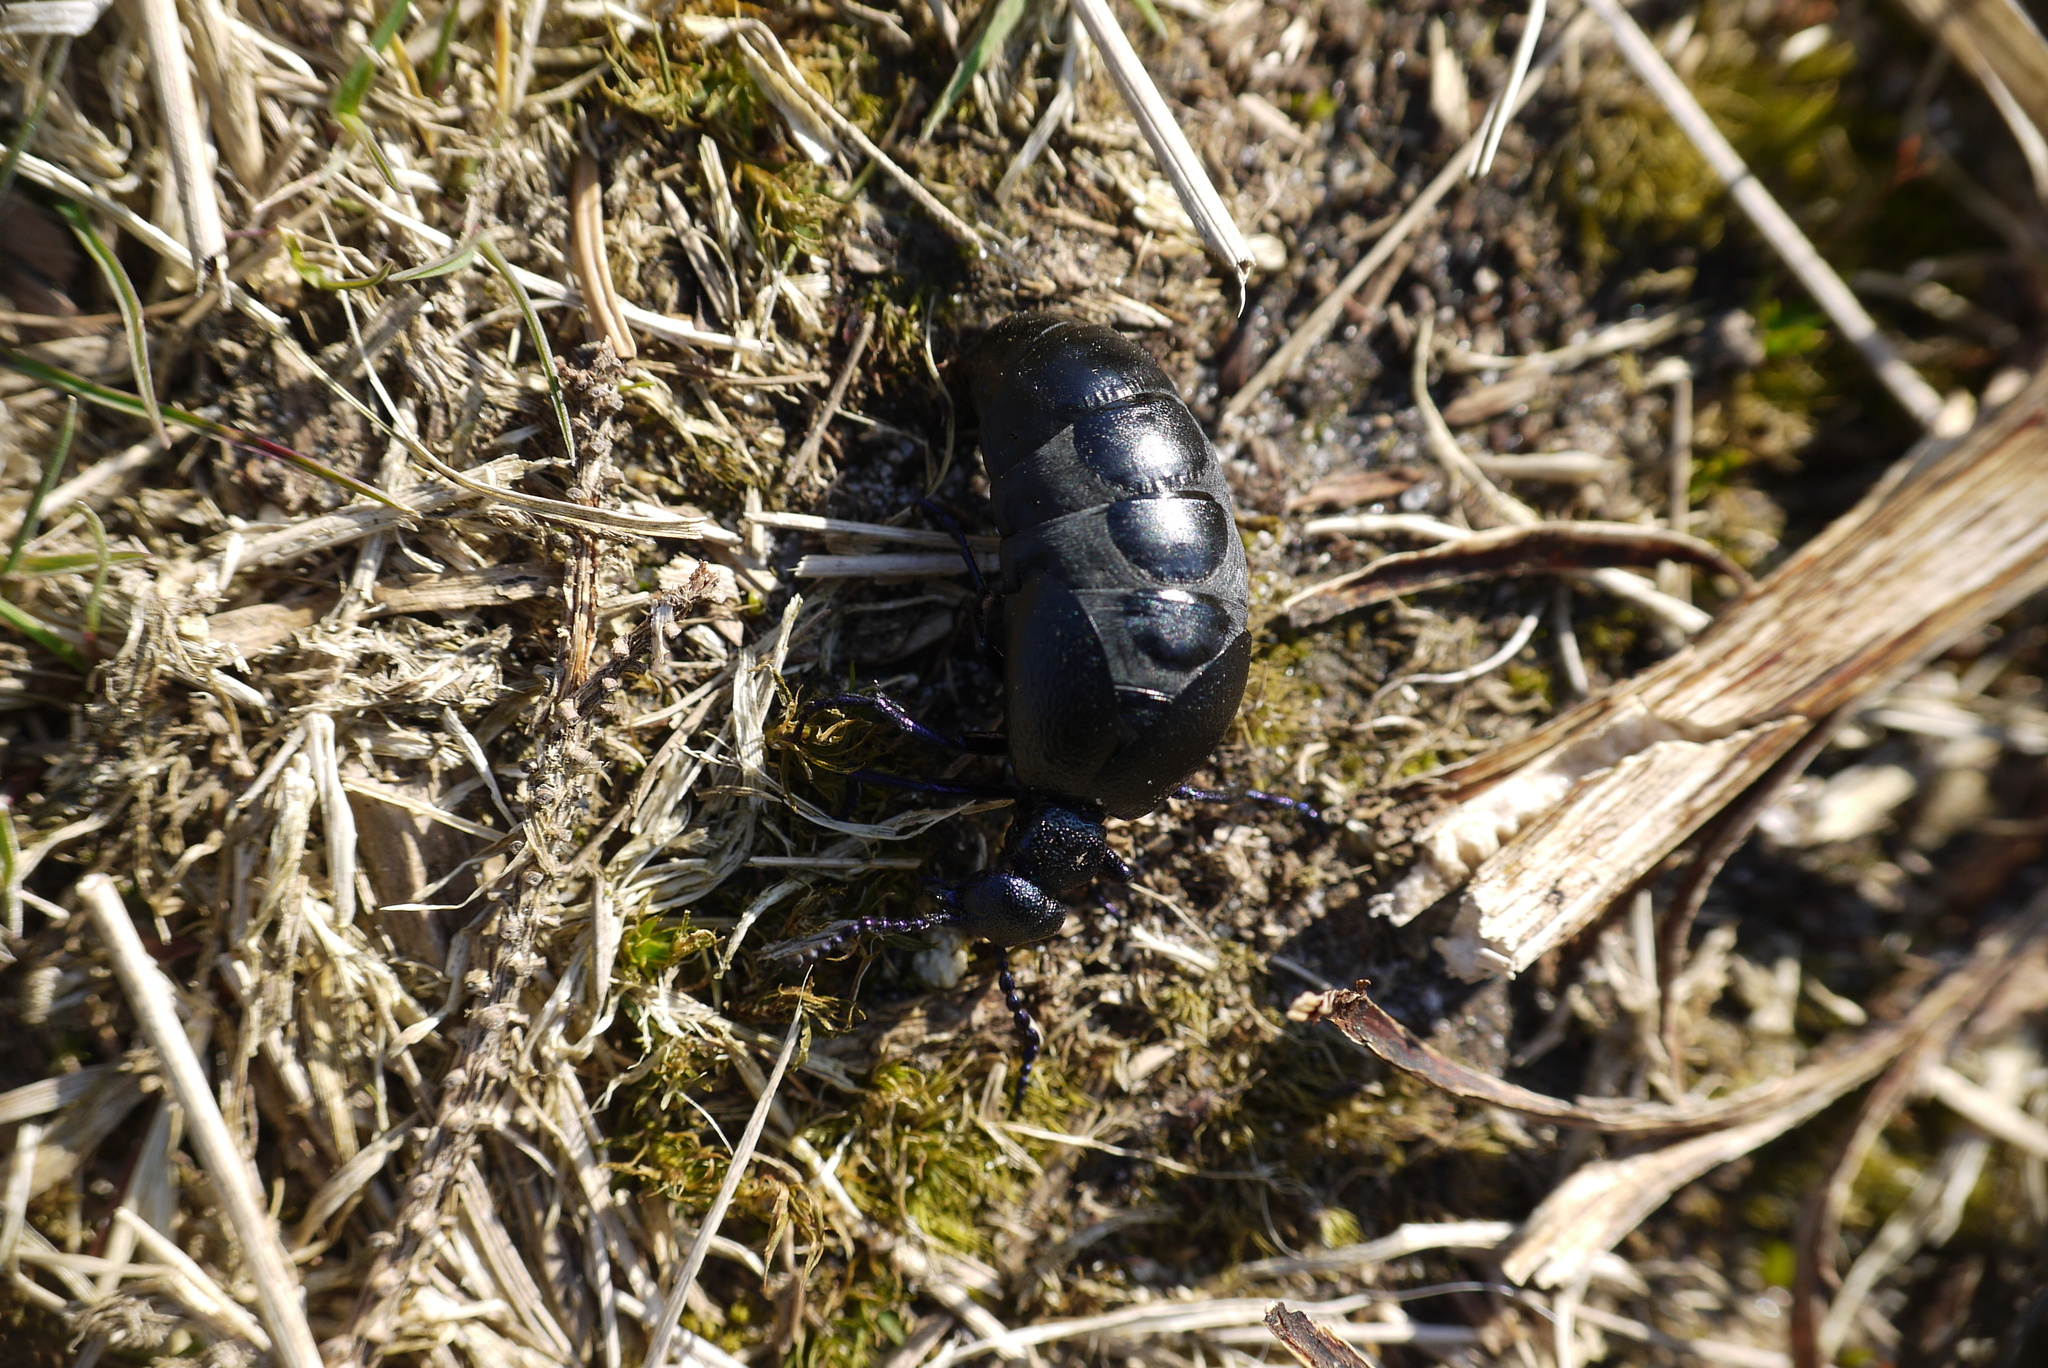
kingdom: Animalia
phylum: Arthropoda
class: Insecta
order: Coleoptera
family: Meloidae
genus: Meloe
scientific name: Meloe proscarabaeus
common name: Black oil-beetle
